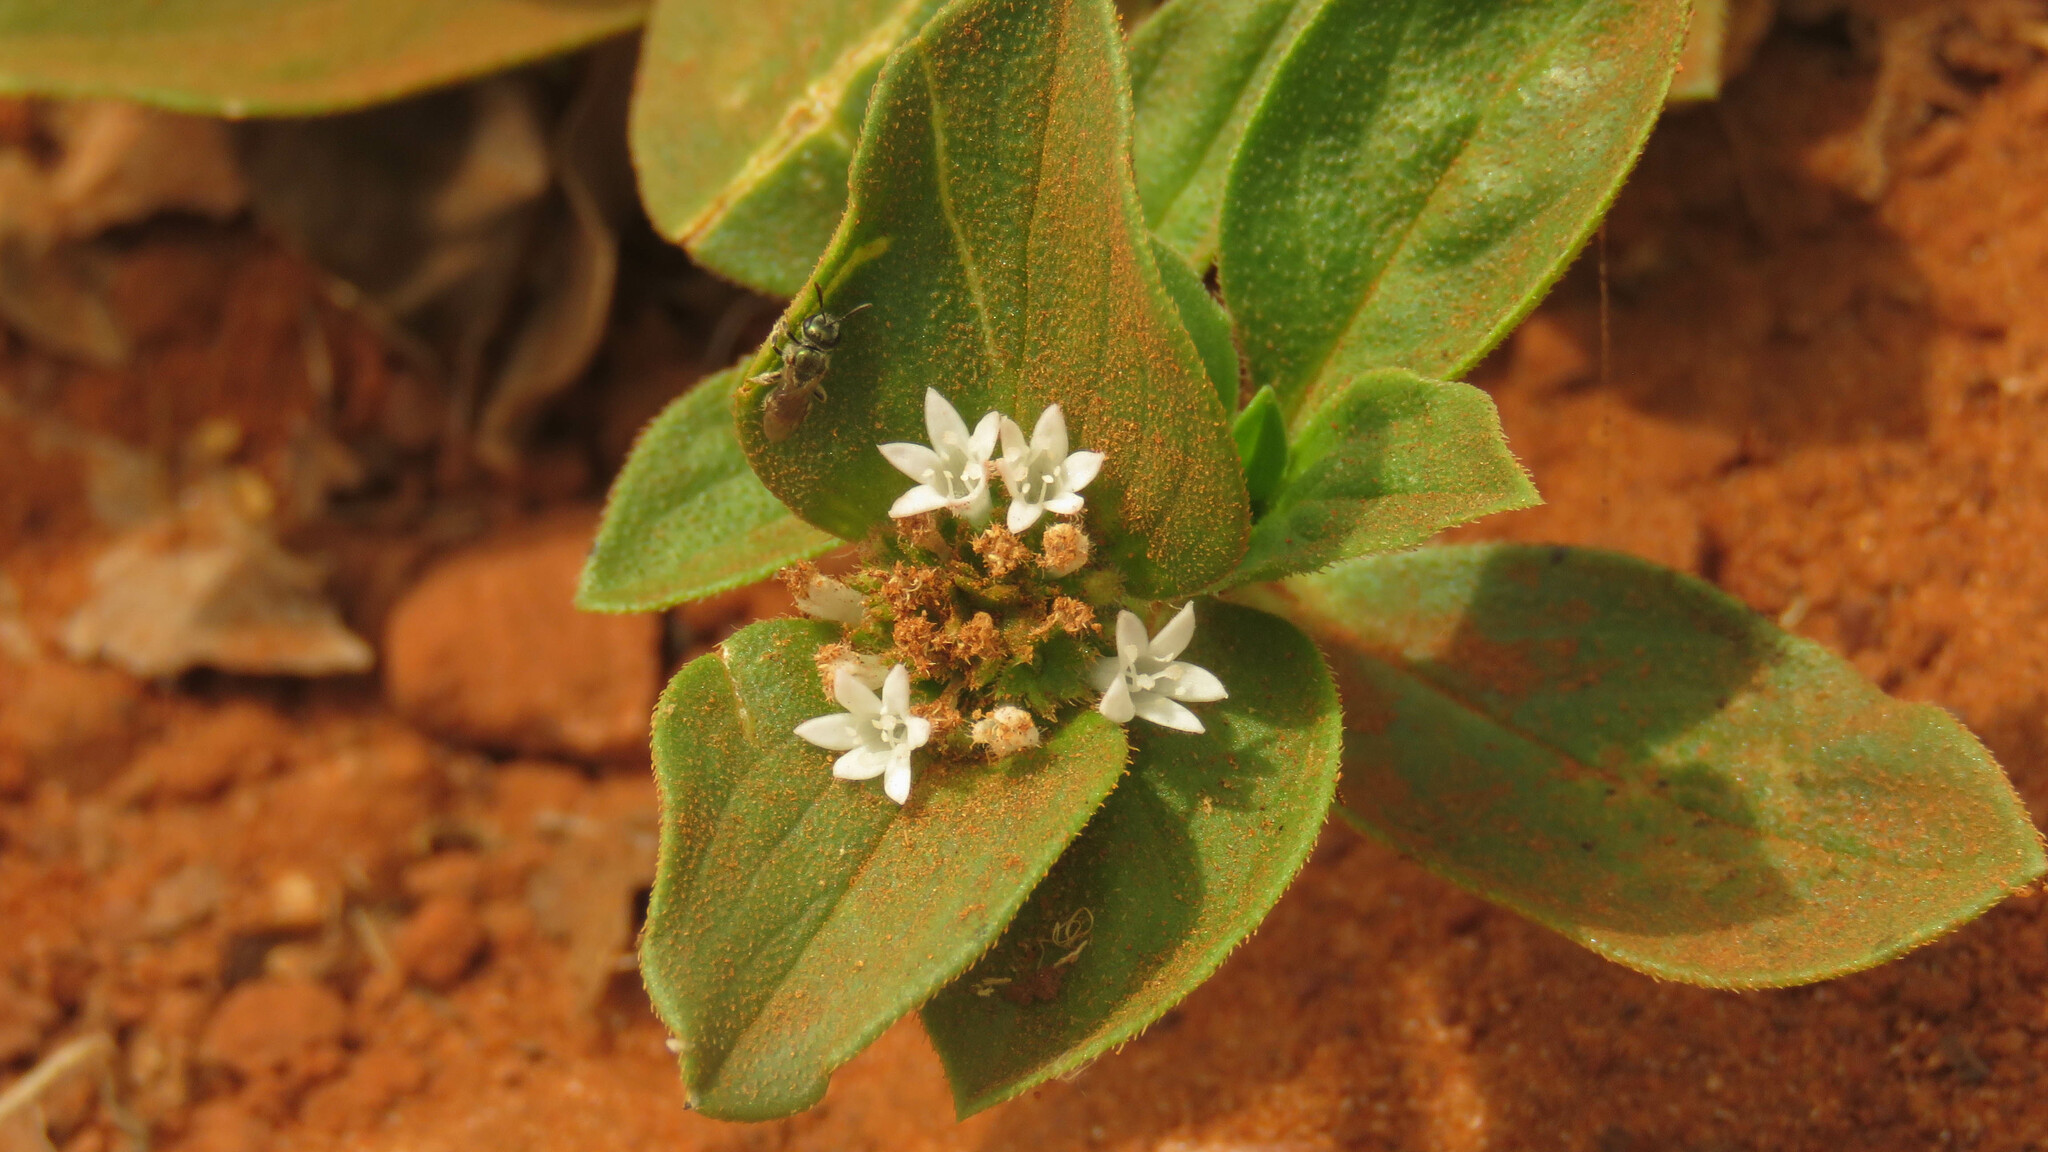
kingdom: Plantae
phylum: Tracheophyta
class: Magnoliopsida
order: Gentianales
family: Rubiaceae
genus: Richardia
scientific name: Richardia brasiliensis
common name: Tropical mexican clover
